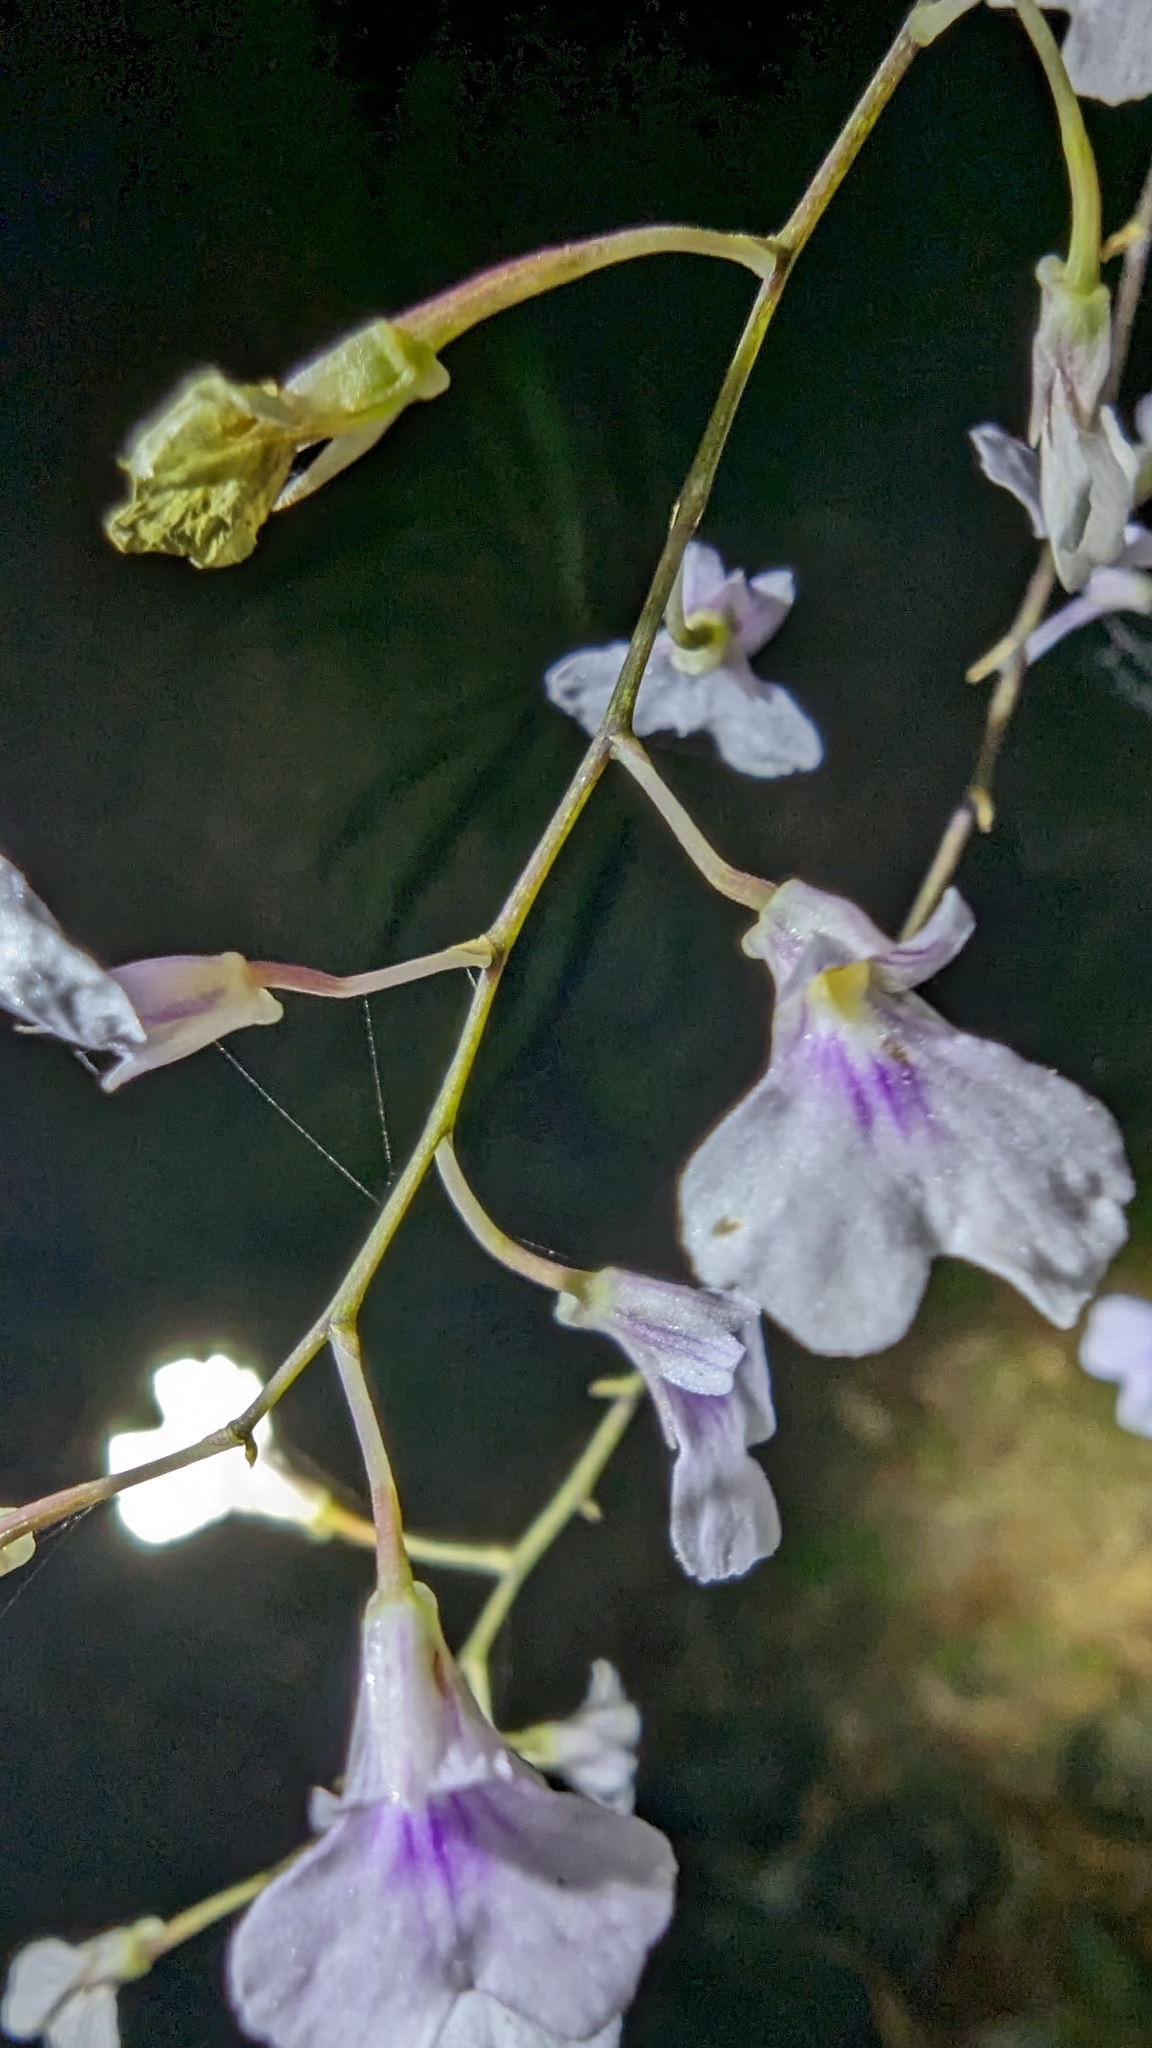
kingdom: Plantae
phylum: Tracheophyta
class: Liliopsida
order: Asparagales
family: Orchidaceae
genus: Ionopsis
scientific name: Ionopsis utricularioides
